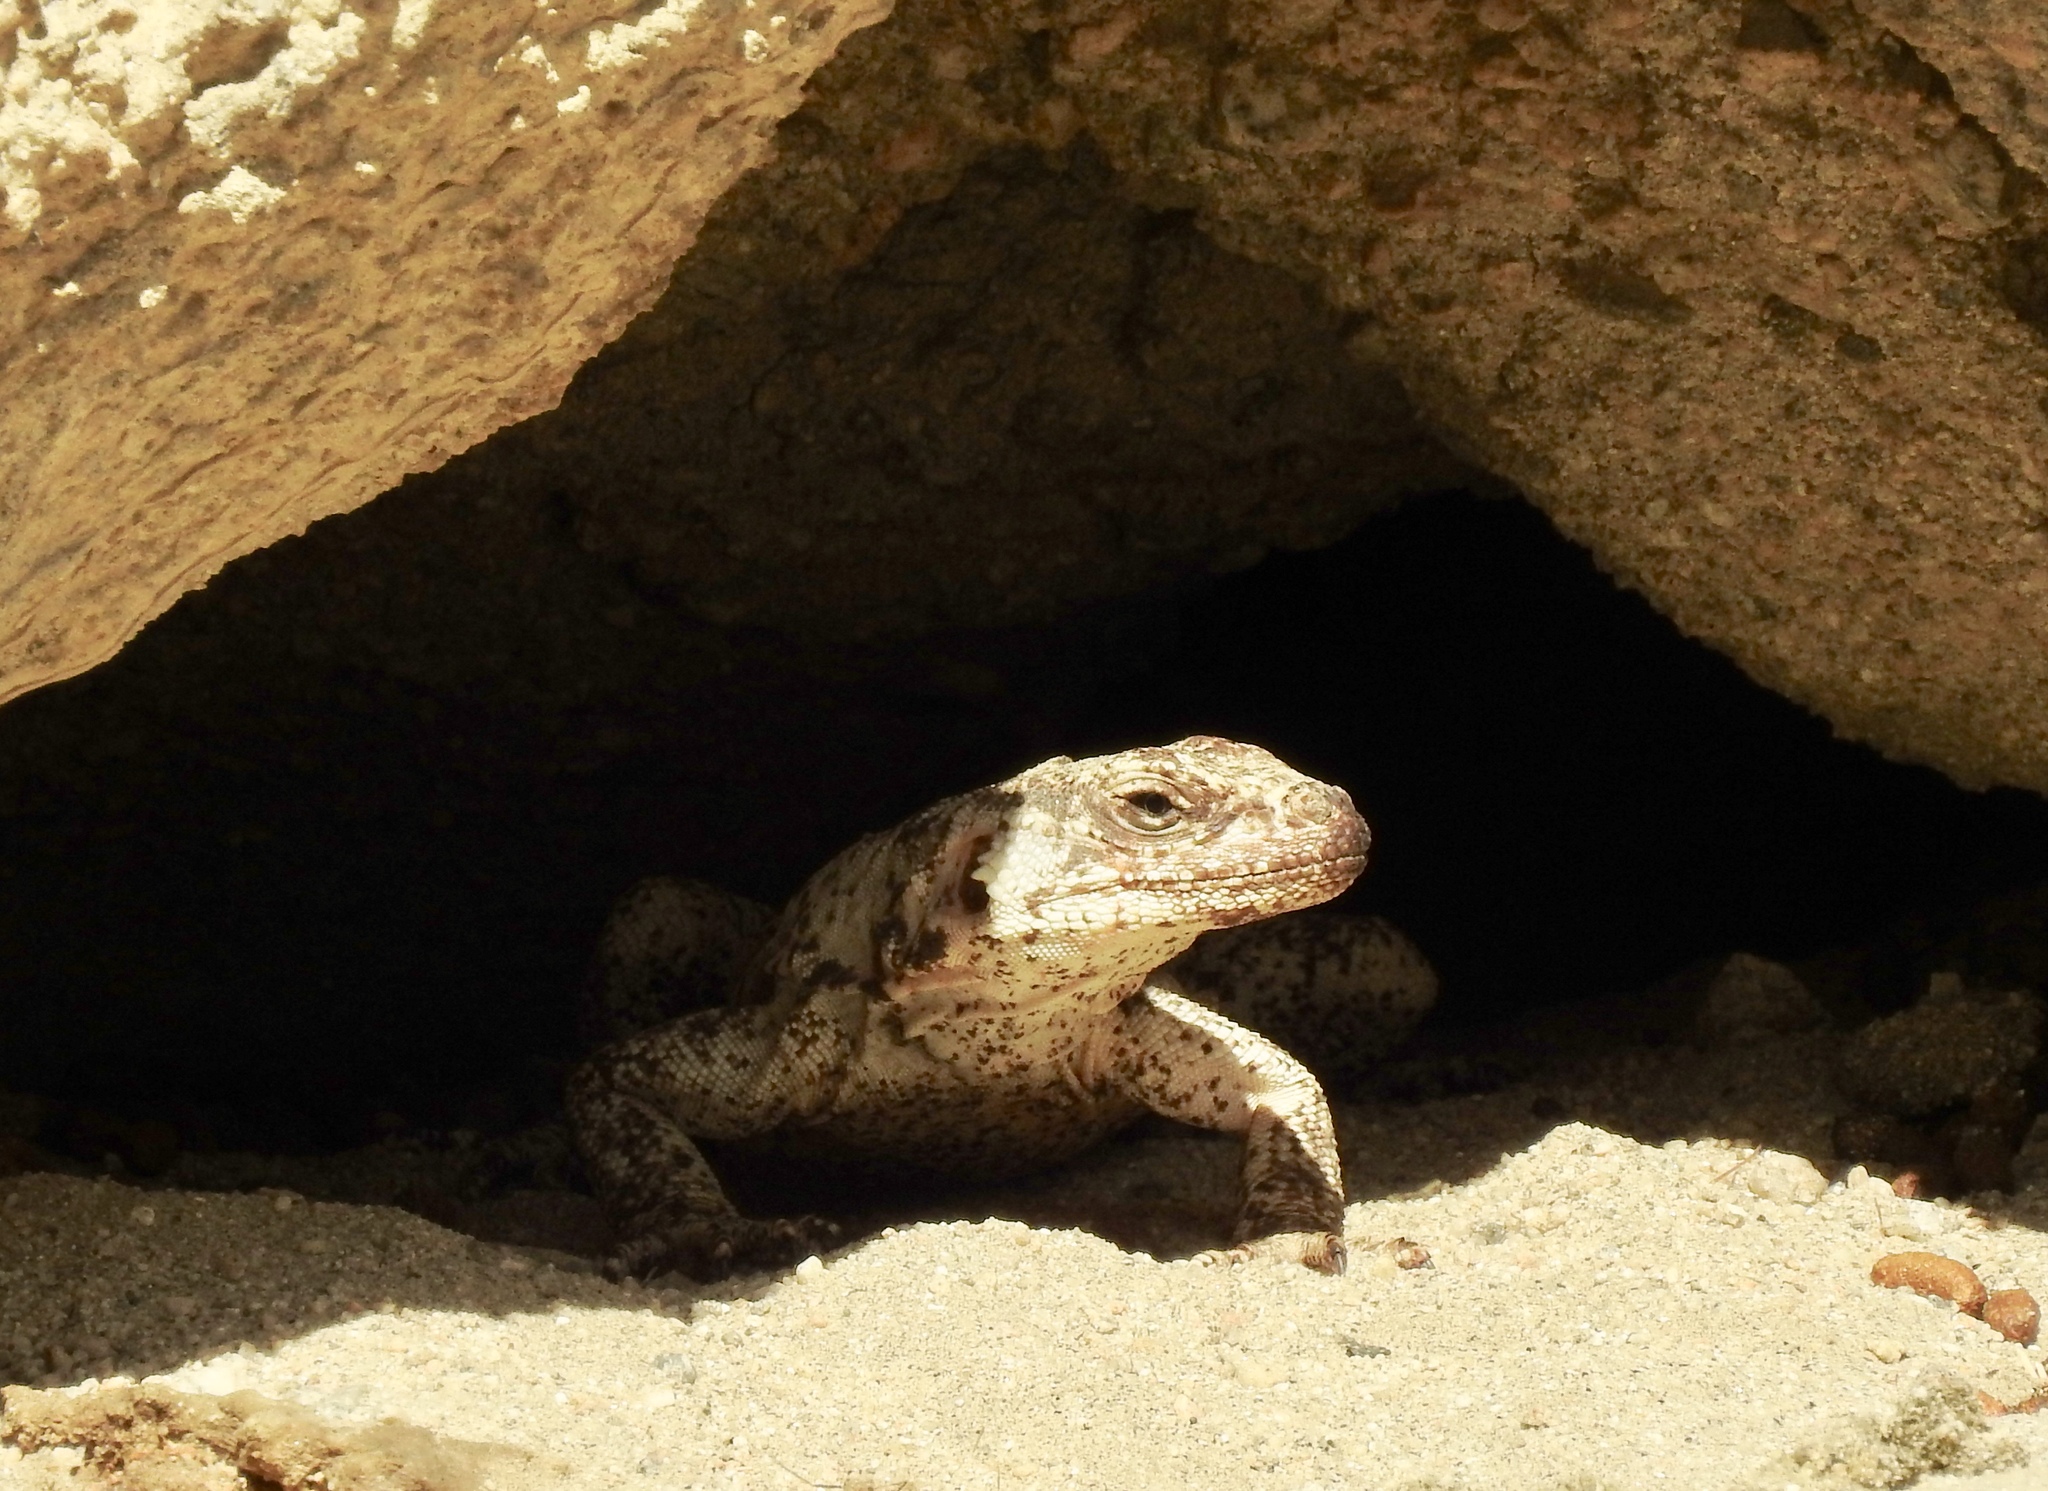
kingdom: Animalia
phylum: Chordata
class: Squamata
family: Iguanidae
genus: Sauromalus
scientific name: Sauromalus ater
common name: Northern chuckwalla
